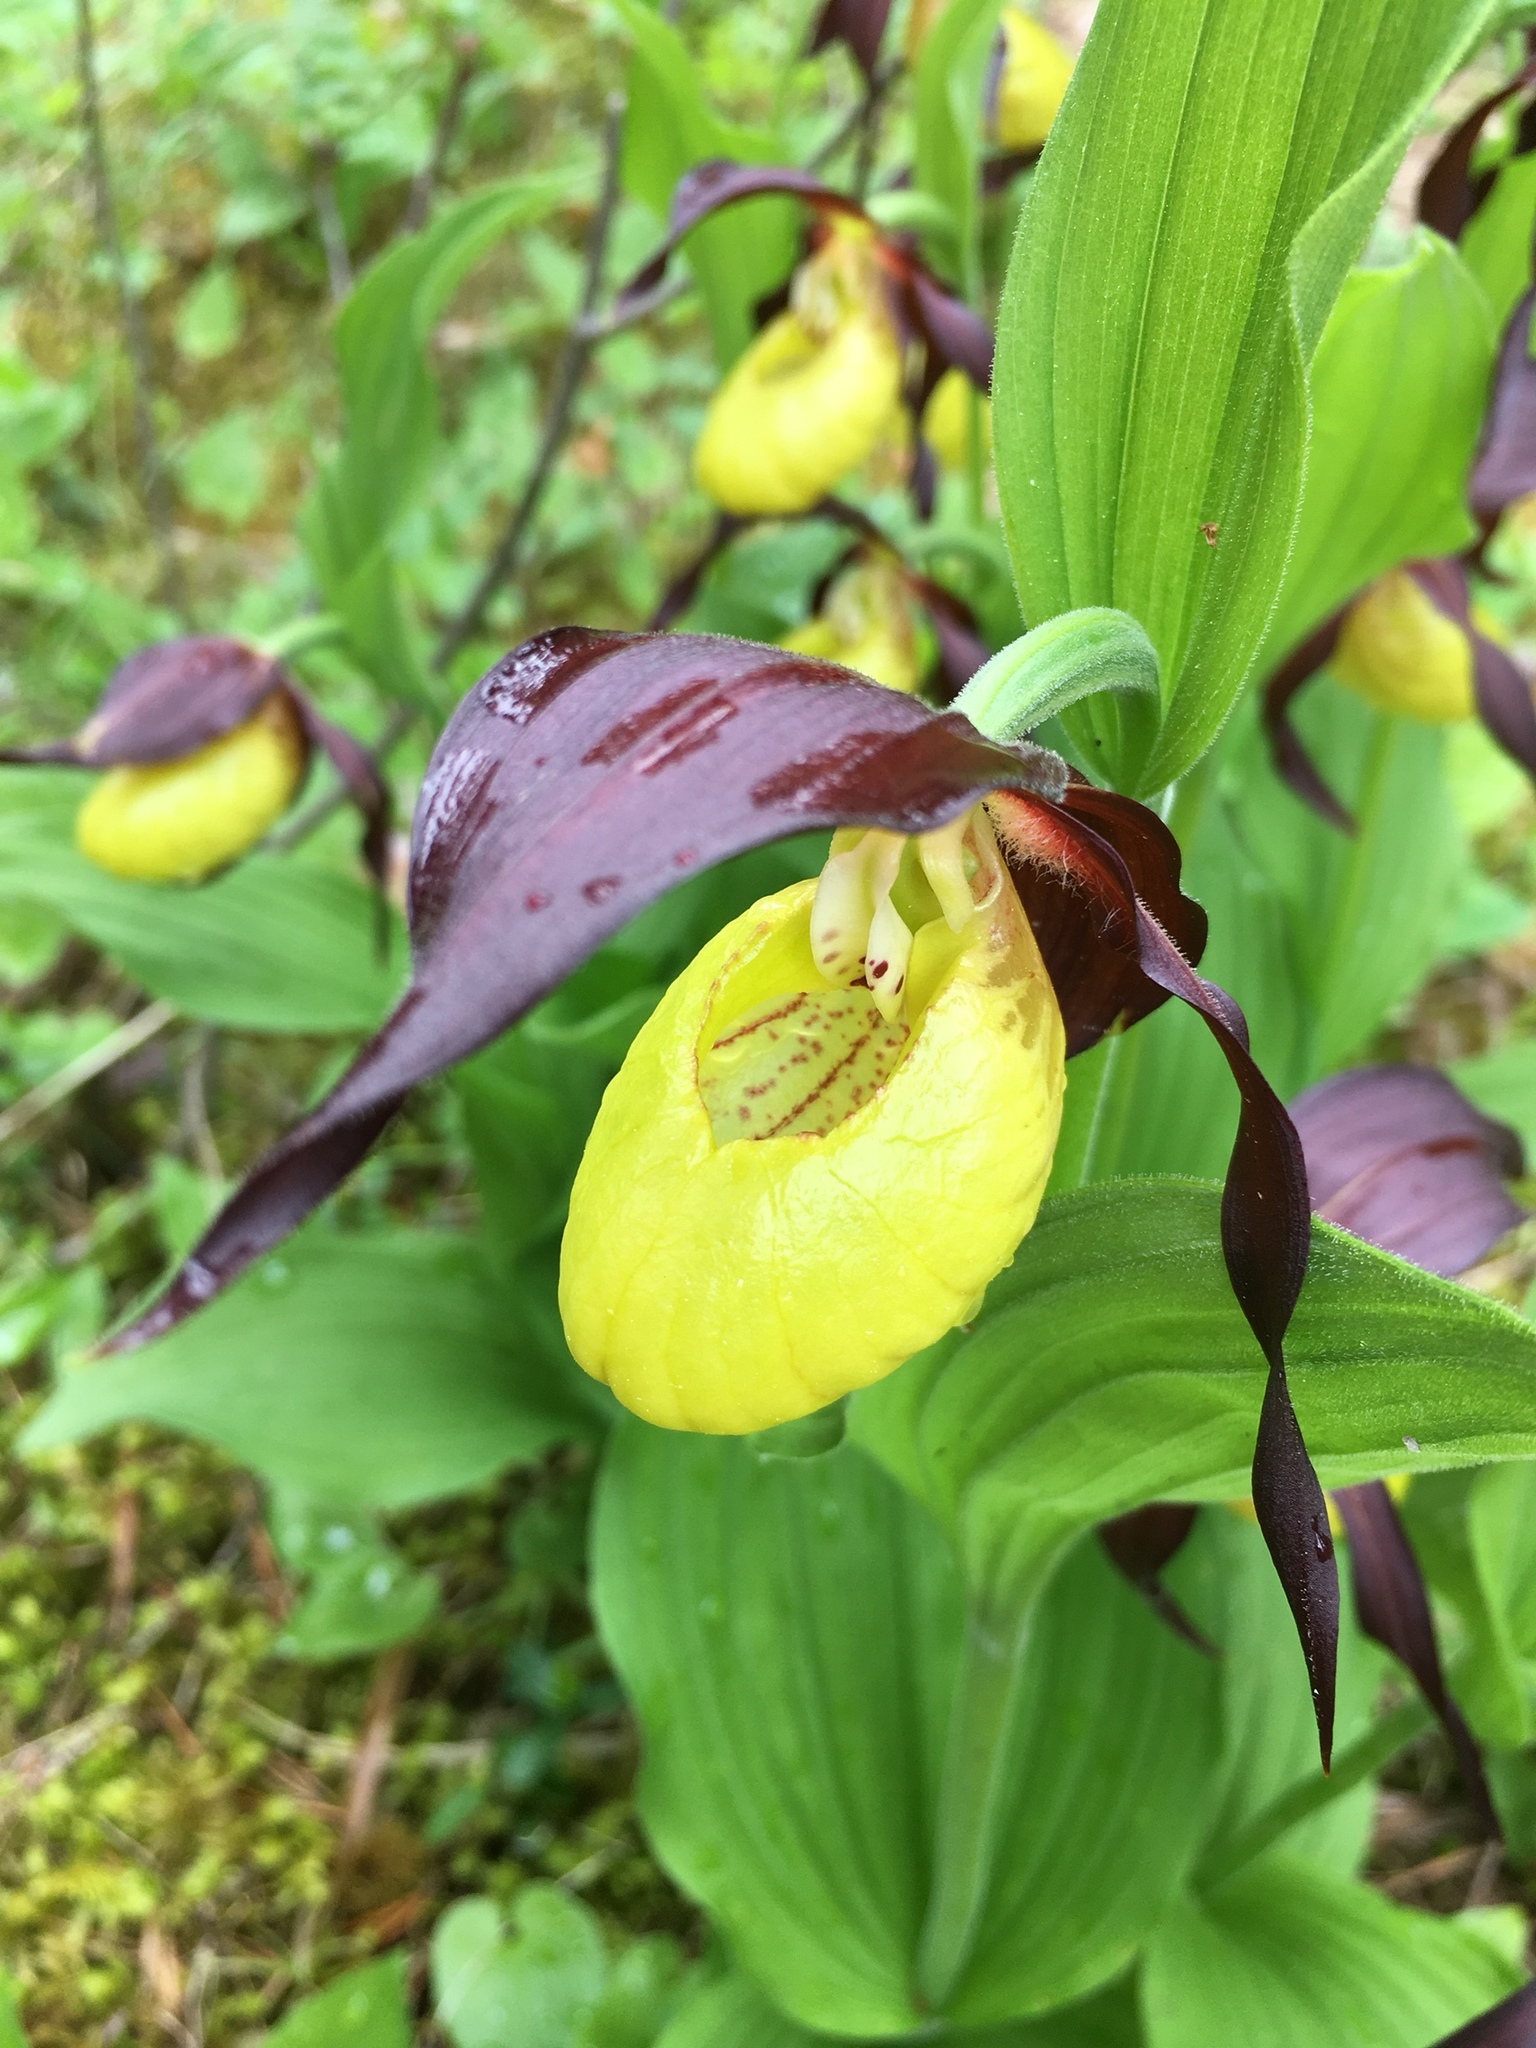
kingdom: Plantae
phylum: Tracheophyta
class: Liliopsida
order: Asparagales
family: Orchidaceae
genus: Cypripedium
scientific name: Cypripedium calceolus
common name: Lady's-slipper
